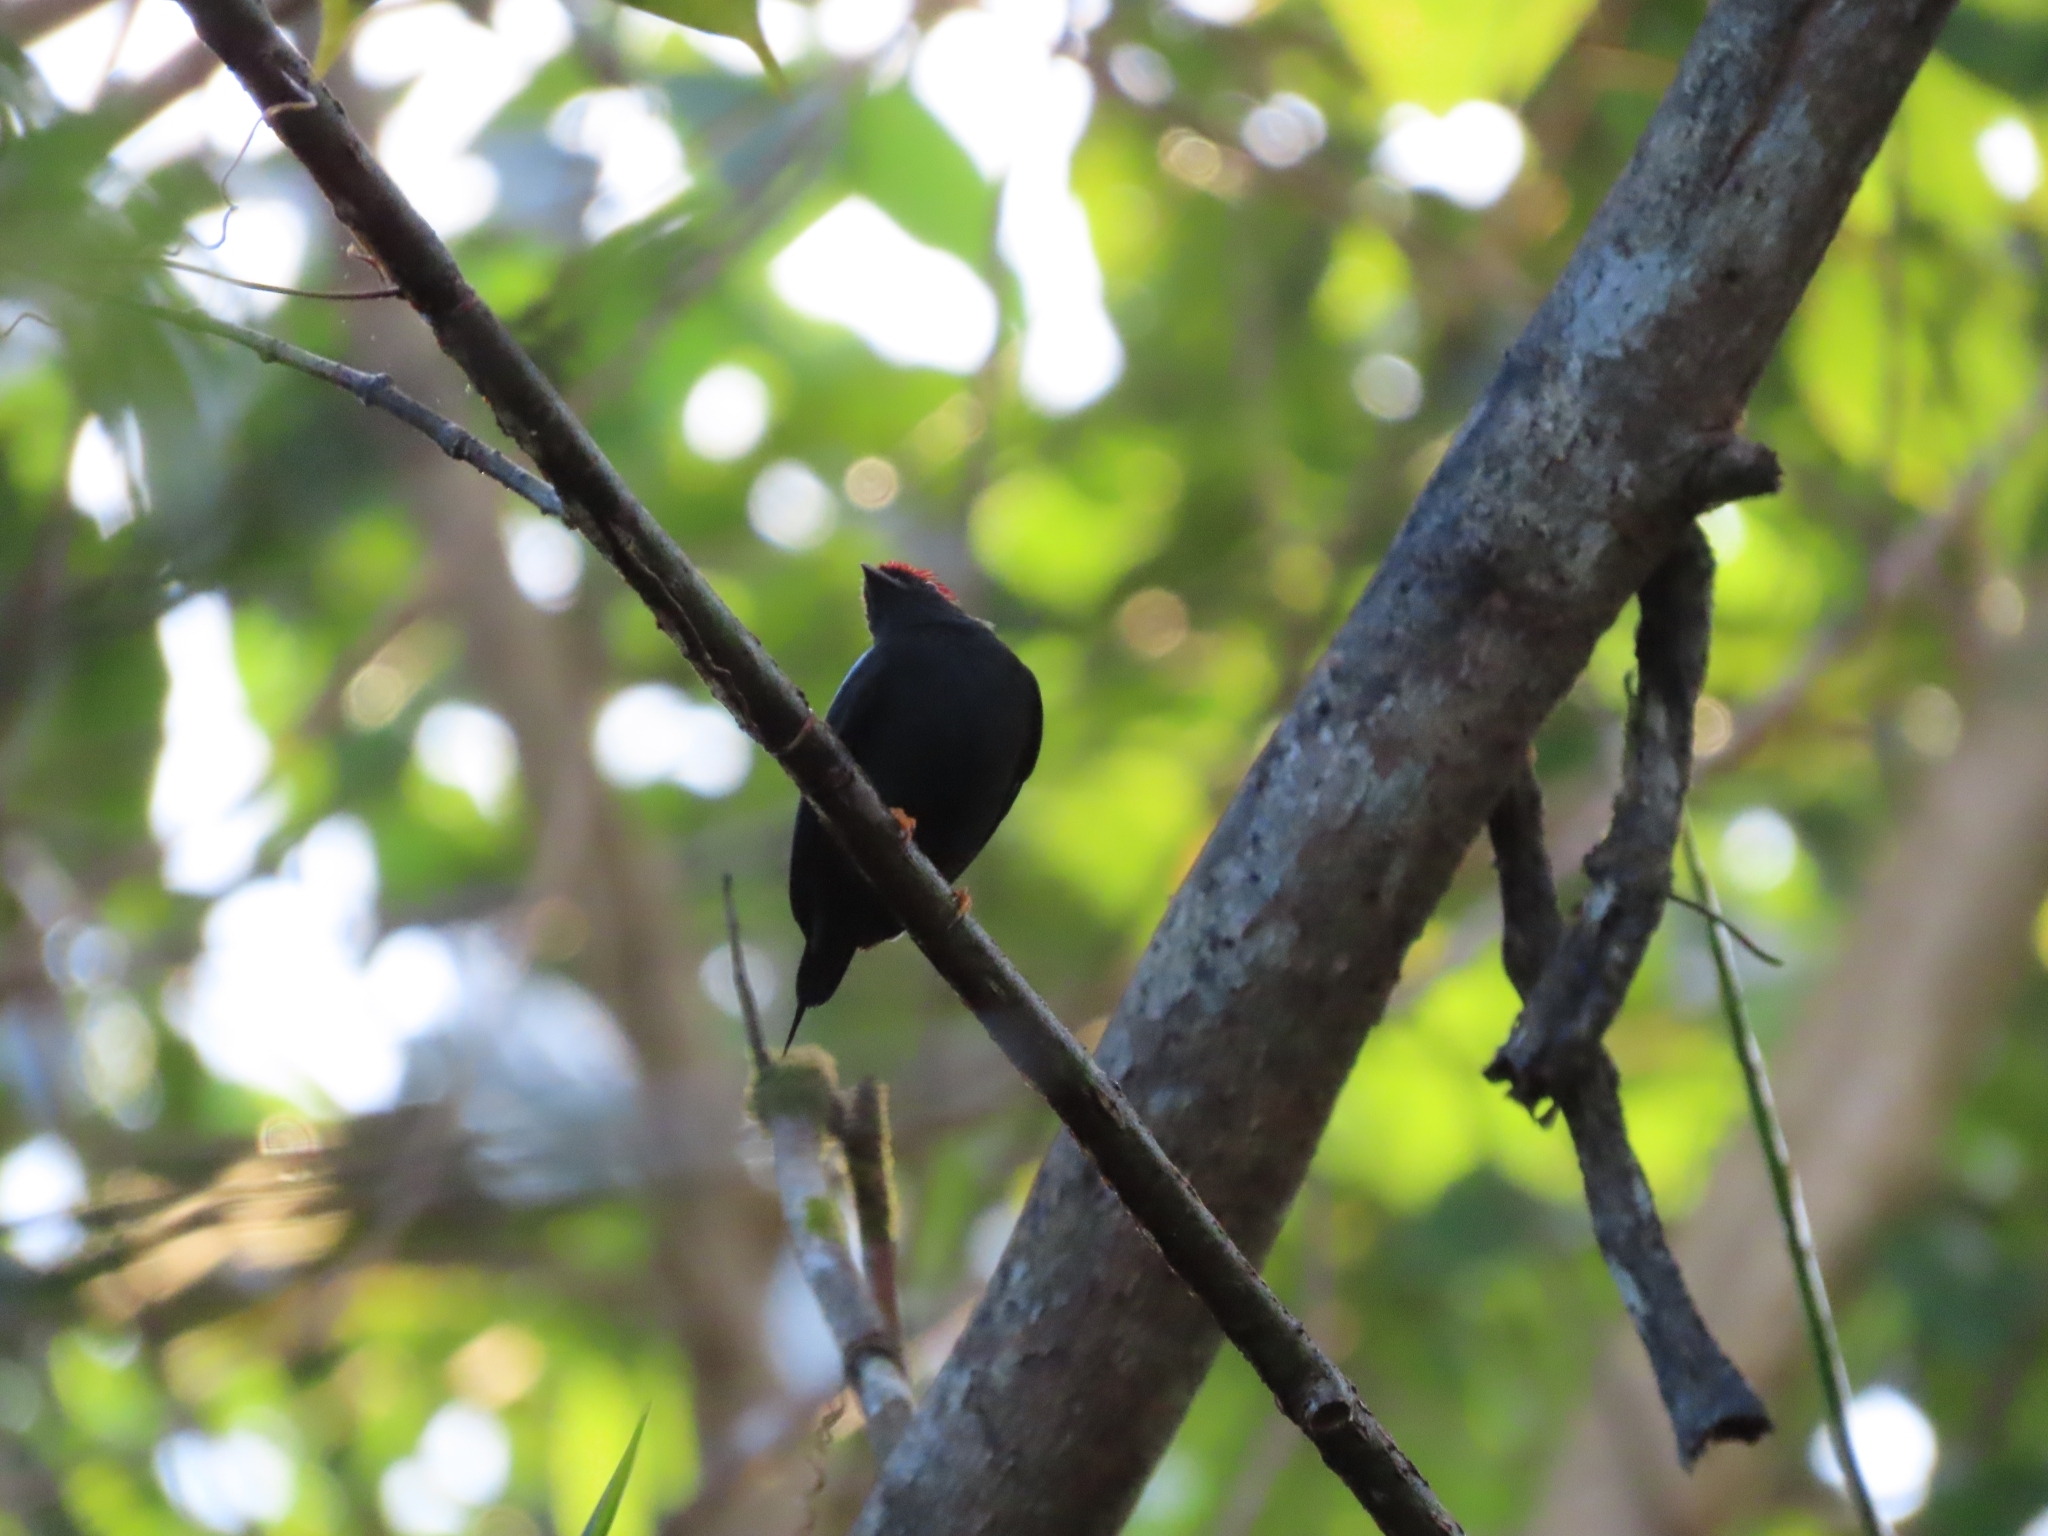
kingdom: Animalia
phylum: Chordata
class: Aves
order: Passeriformes
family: Pipridae
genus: Chiroxiphia
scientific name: Chiroxiphia lanceolata
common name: Lance-tailed manakin
